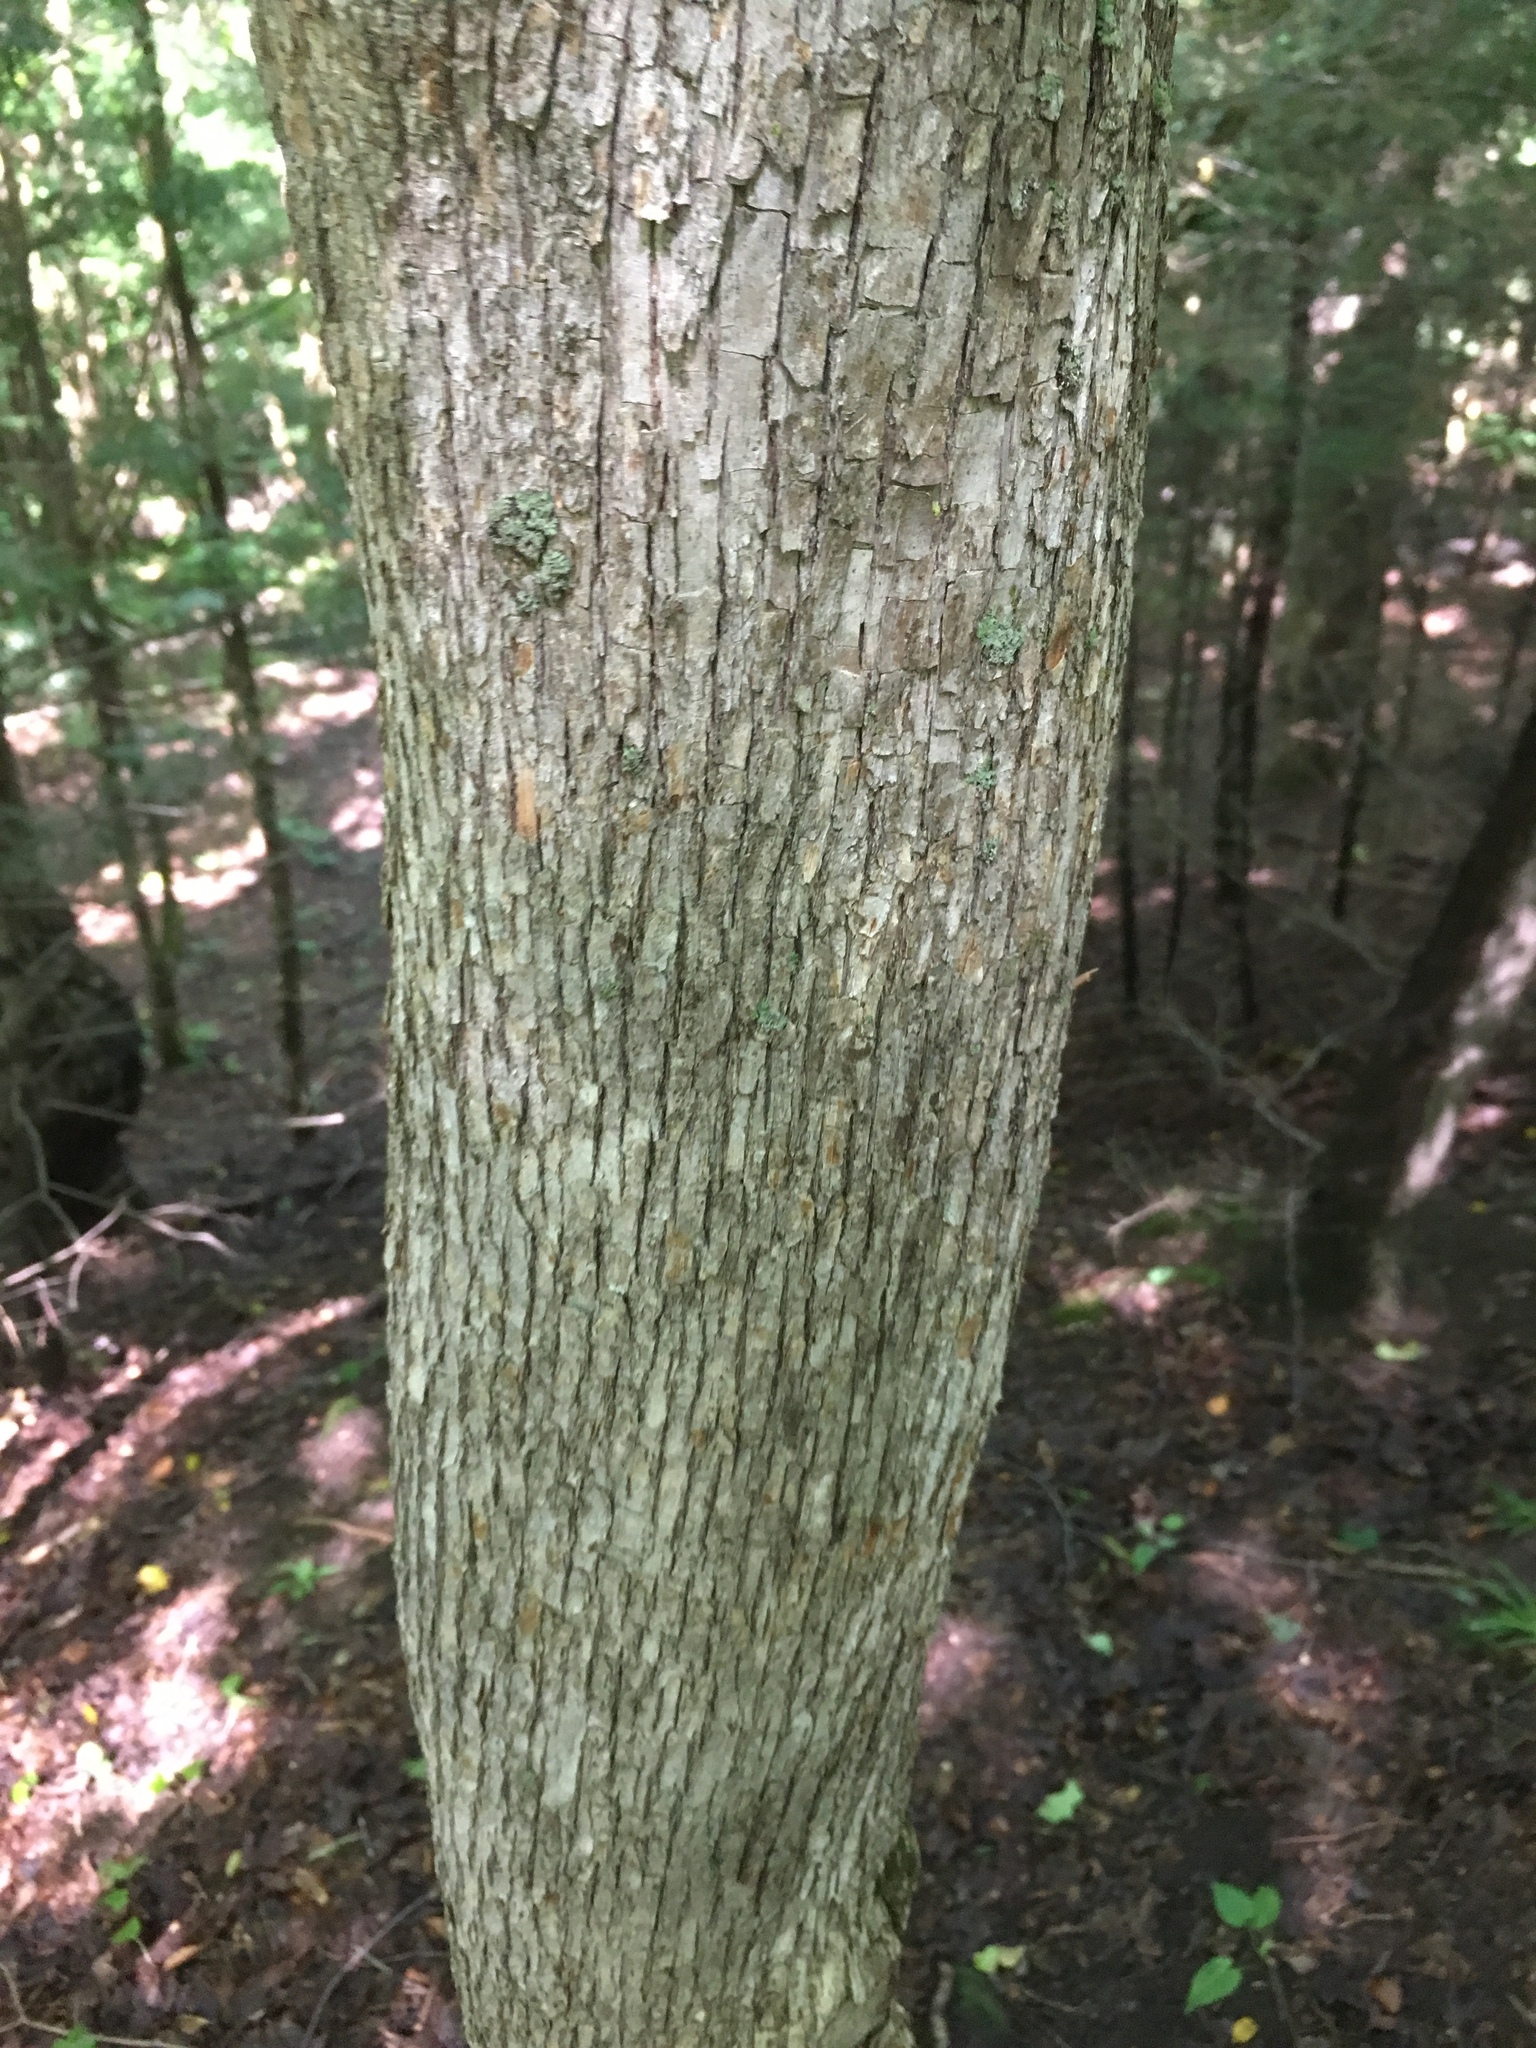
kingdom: Plantae
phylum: Tracheophyta
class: Magnoliopsida
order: Fagales
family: Betulaceae
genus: Ostrya
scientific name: Ostrya virginiana
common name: Ironwood
